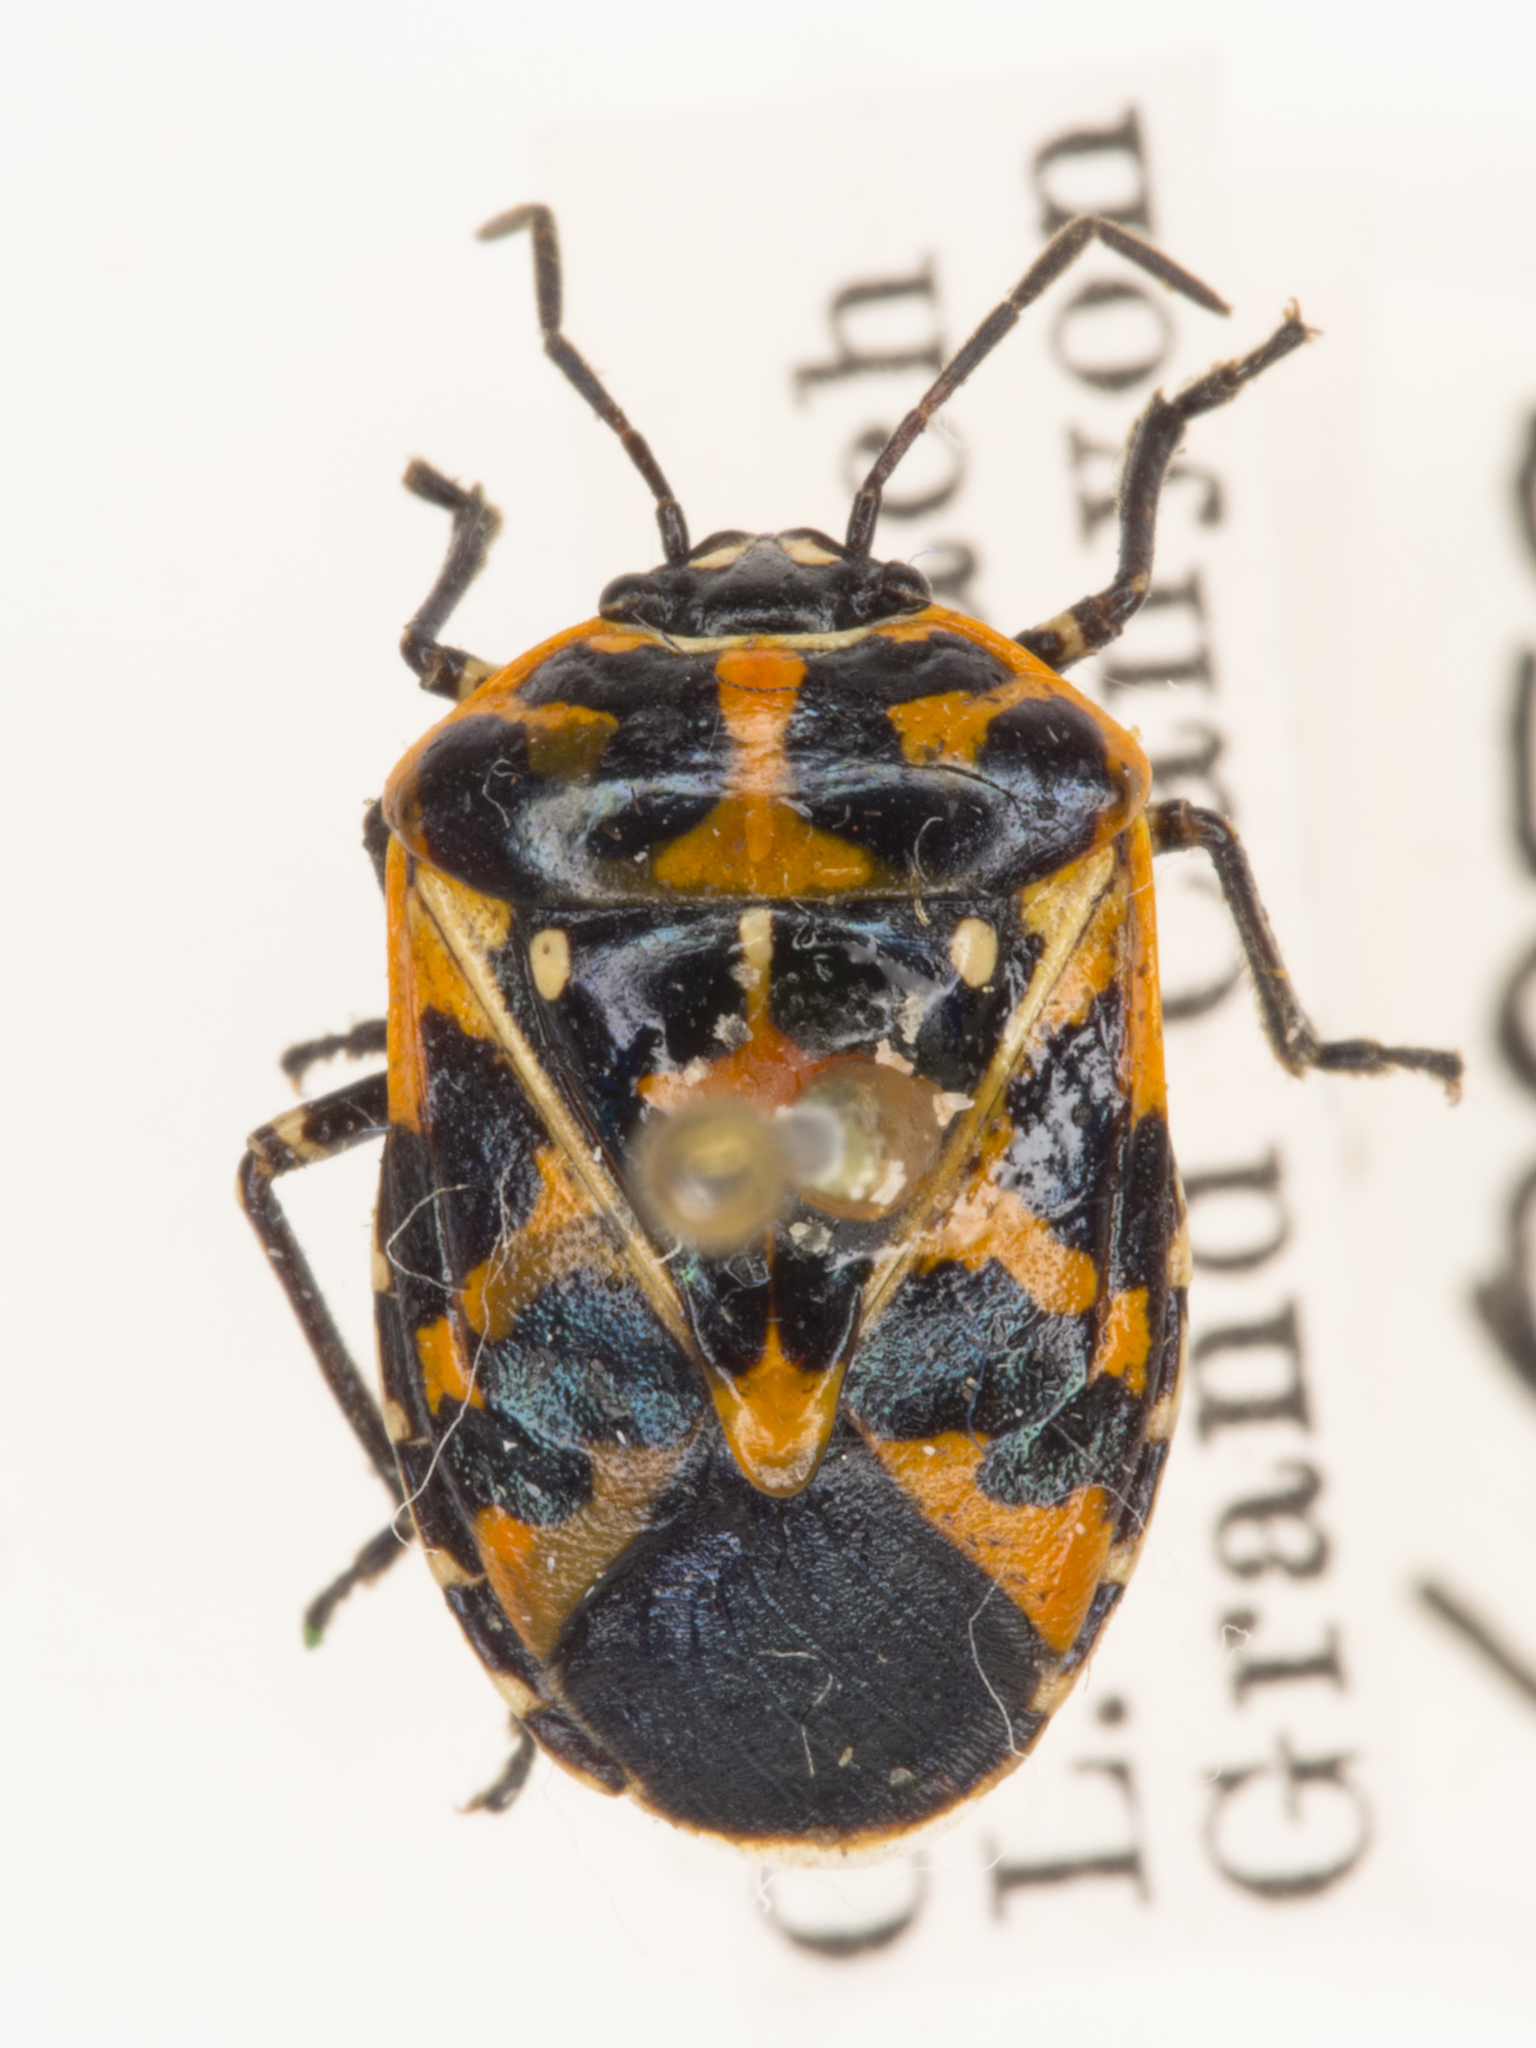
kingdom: Animalia
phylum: Arthropoda
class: Insecta
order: Hemiptera
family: Pentatomidae
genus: Murgantia
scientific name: Murgantia histrionica
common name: Harlequin bug
